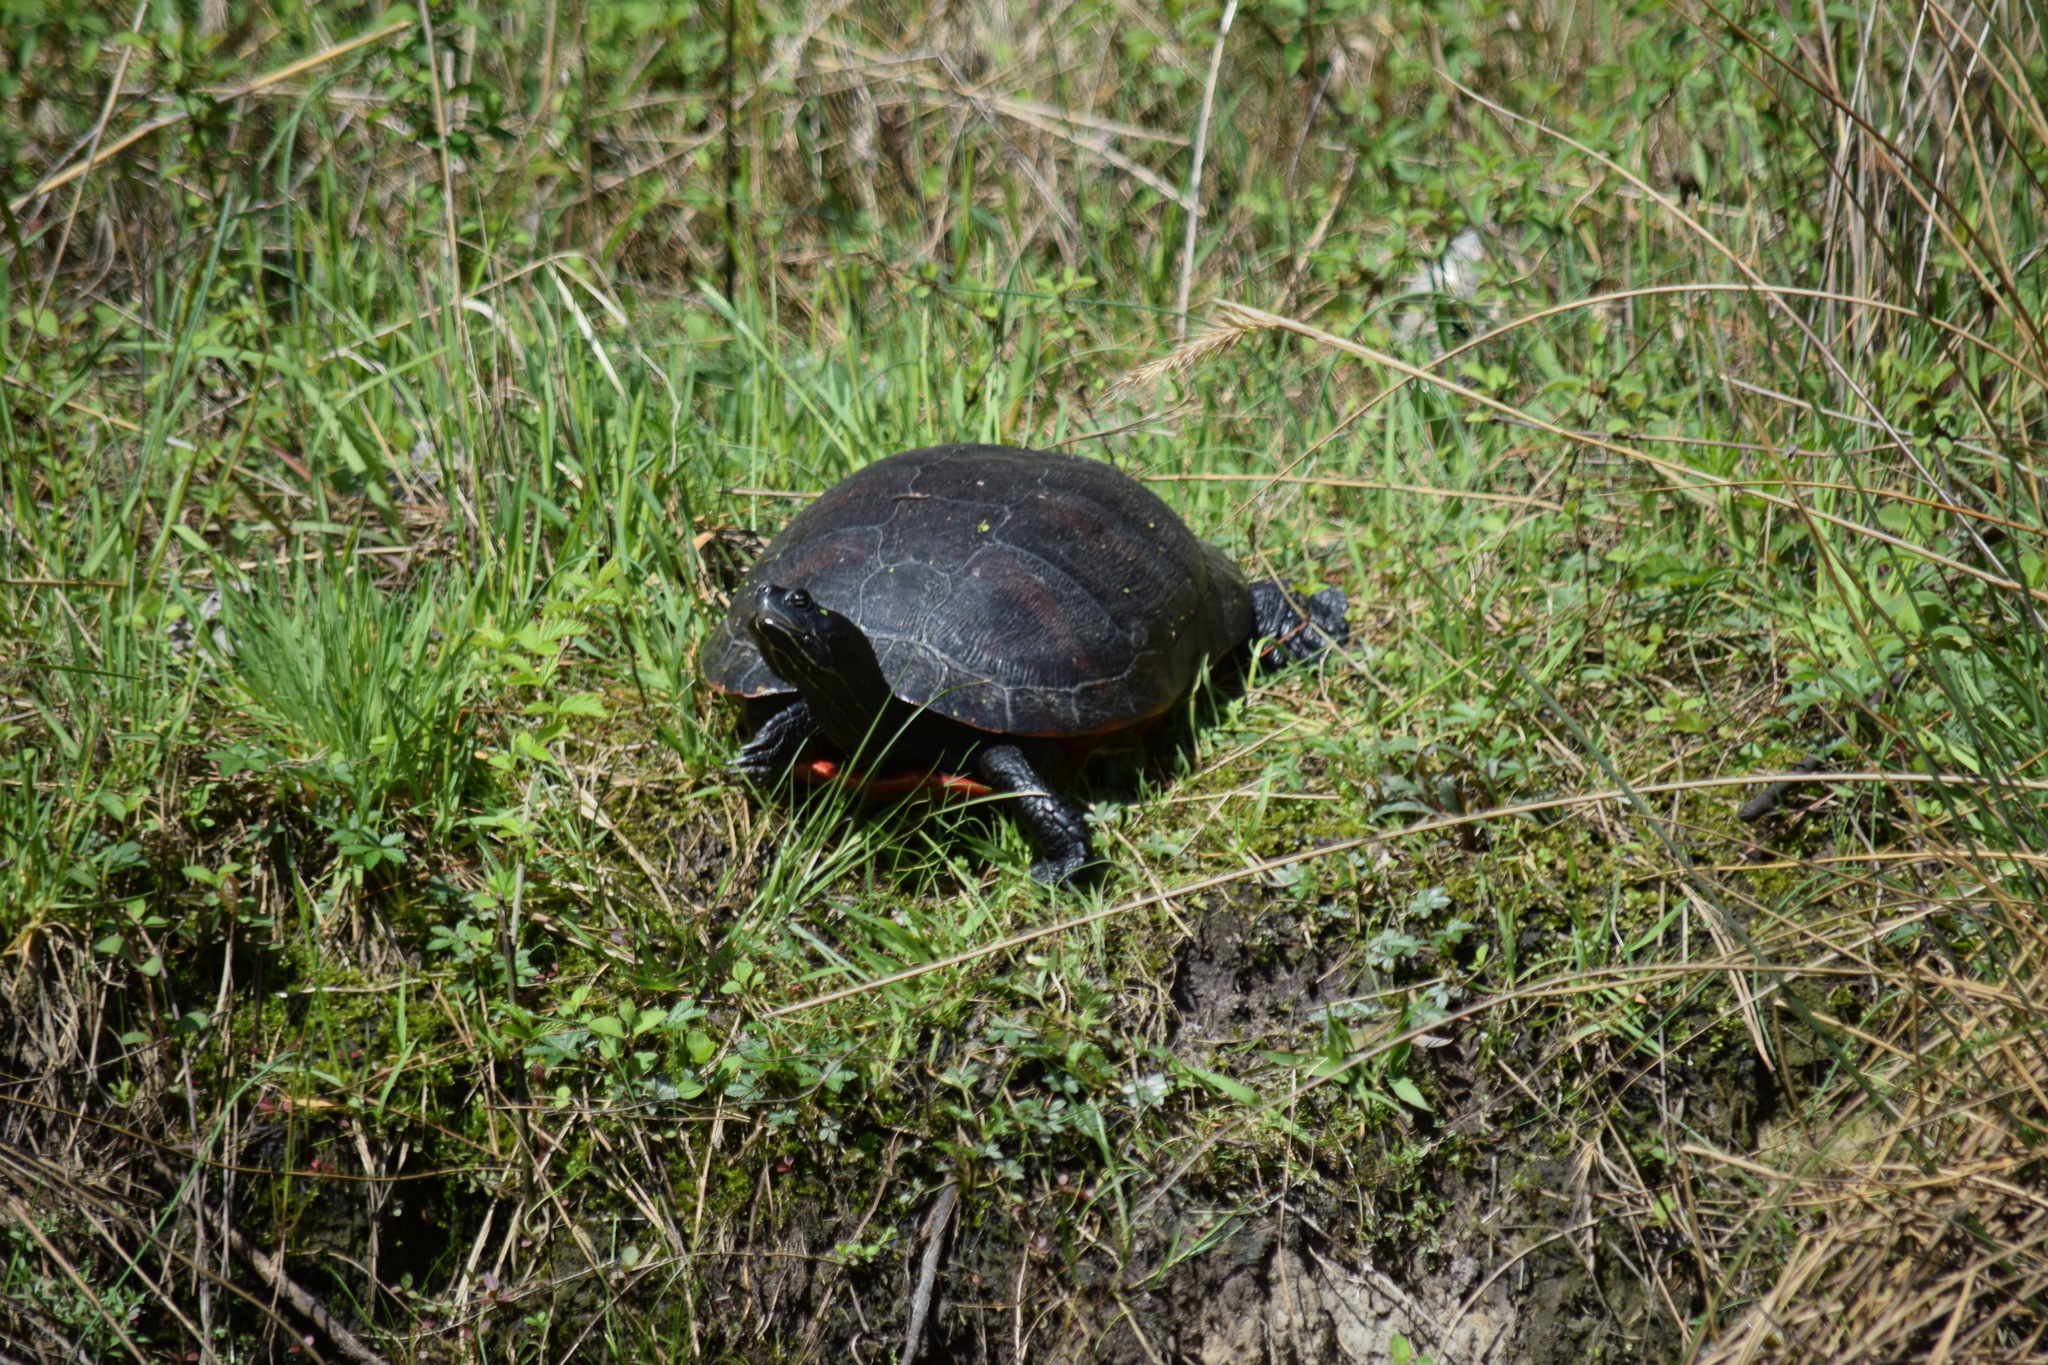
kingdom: Animalia
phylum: Chordata
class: Testudines
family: Emydidae
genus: Pseudemys
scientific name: Pseudemys rubriventris
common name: American red-bellied turtle
